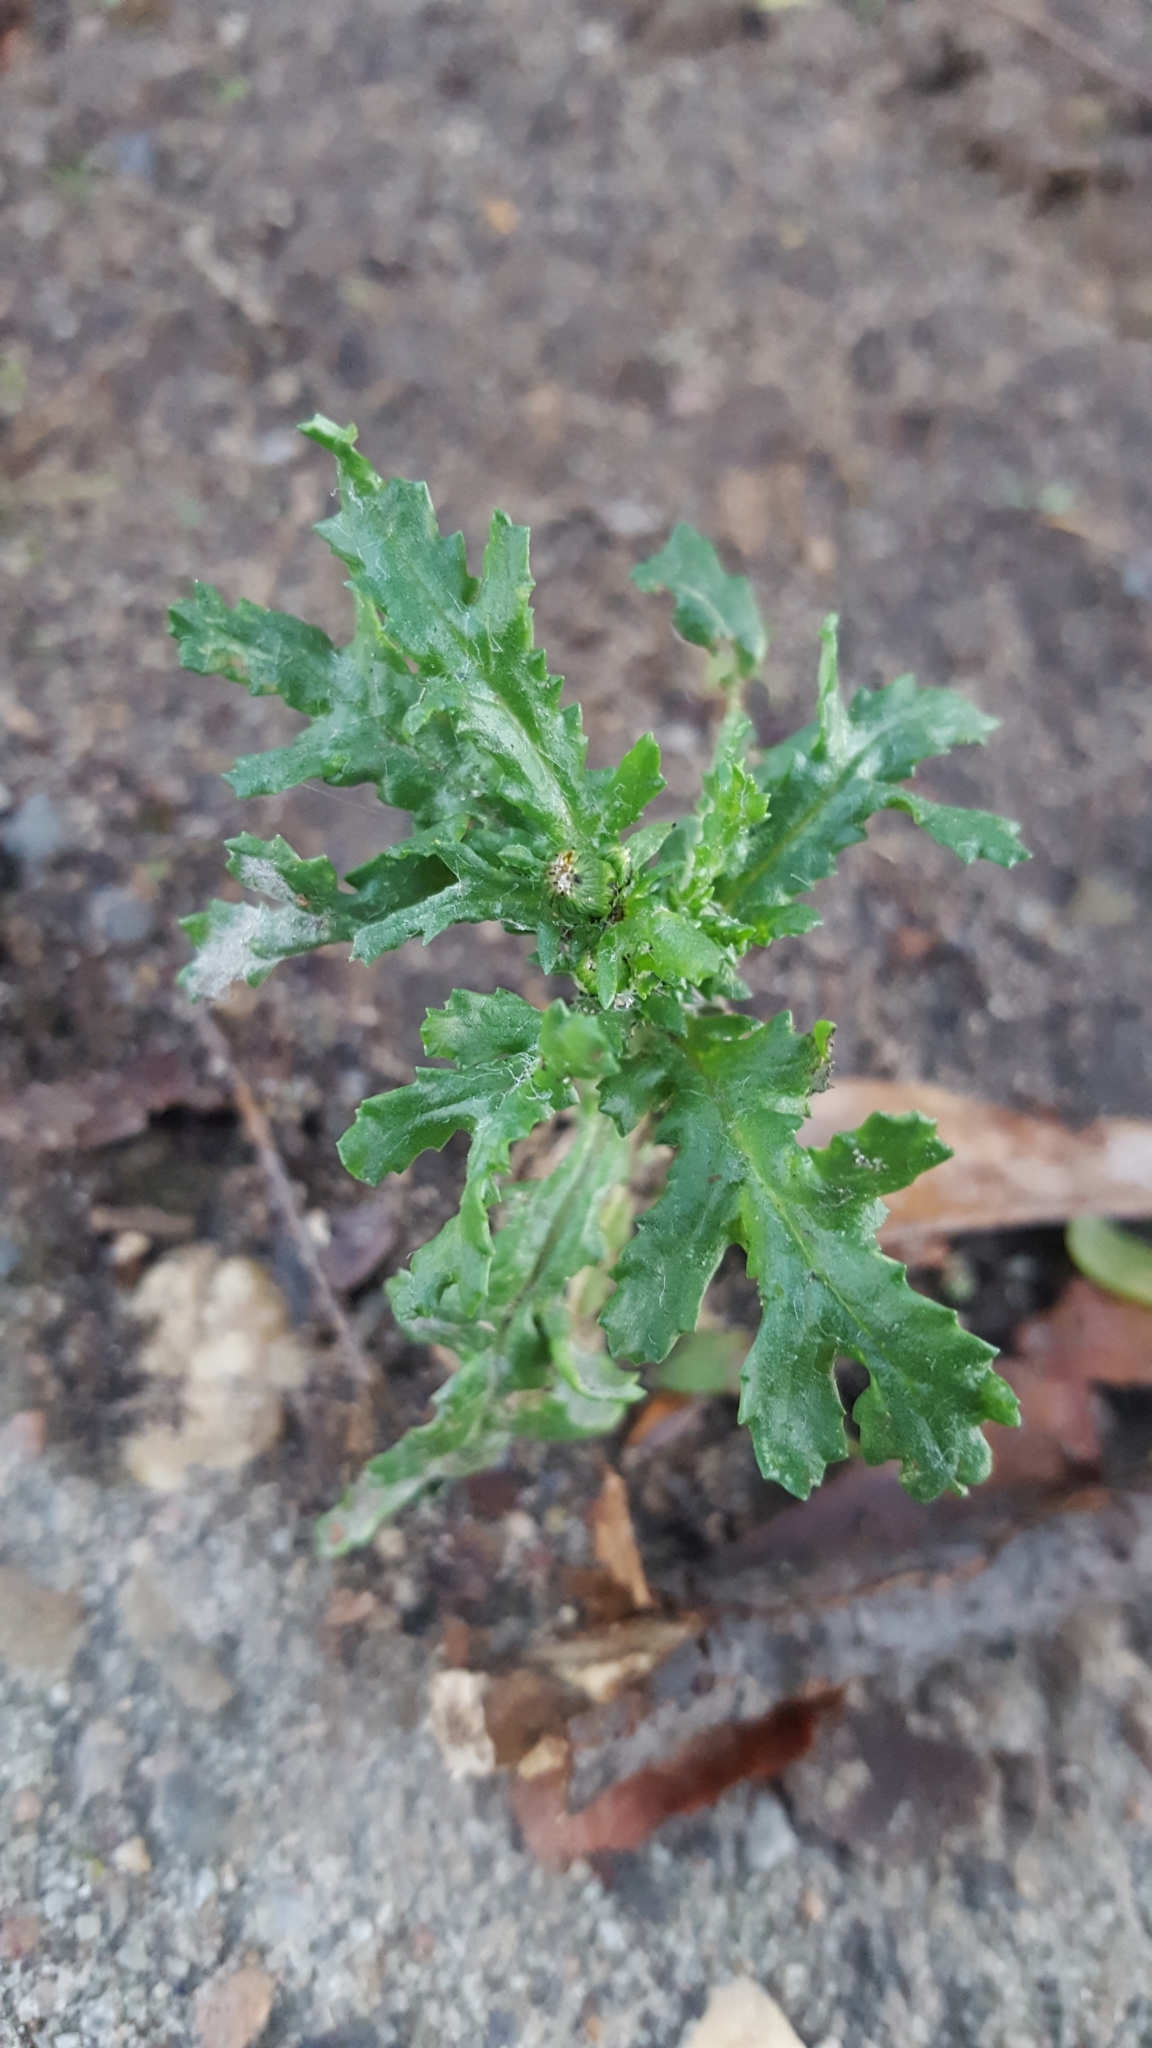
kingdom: Plantae
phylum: Tracheophyta
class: Magnoliopsida
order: Asterales
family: Asteraceae
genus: Senecio
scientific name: Senecio vulgaris
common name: Old-man-in-the-spring
